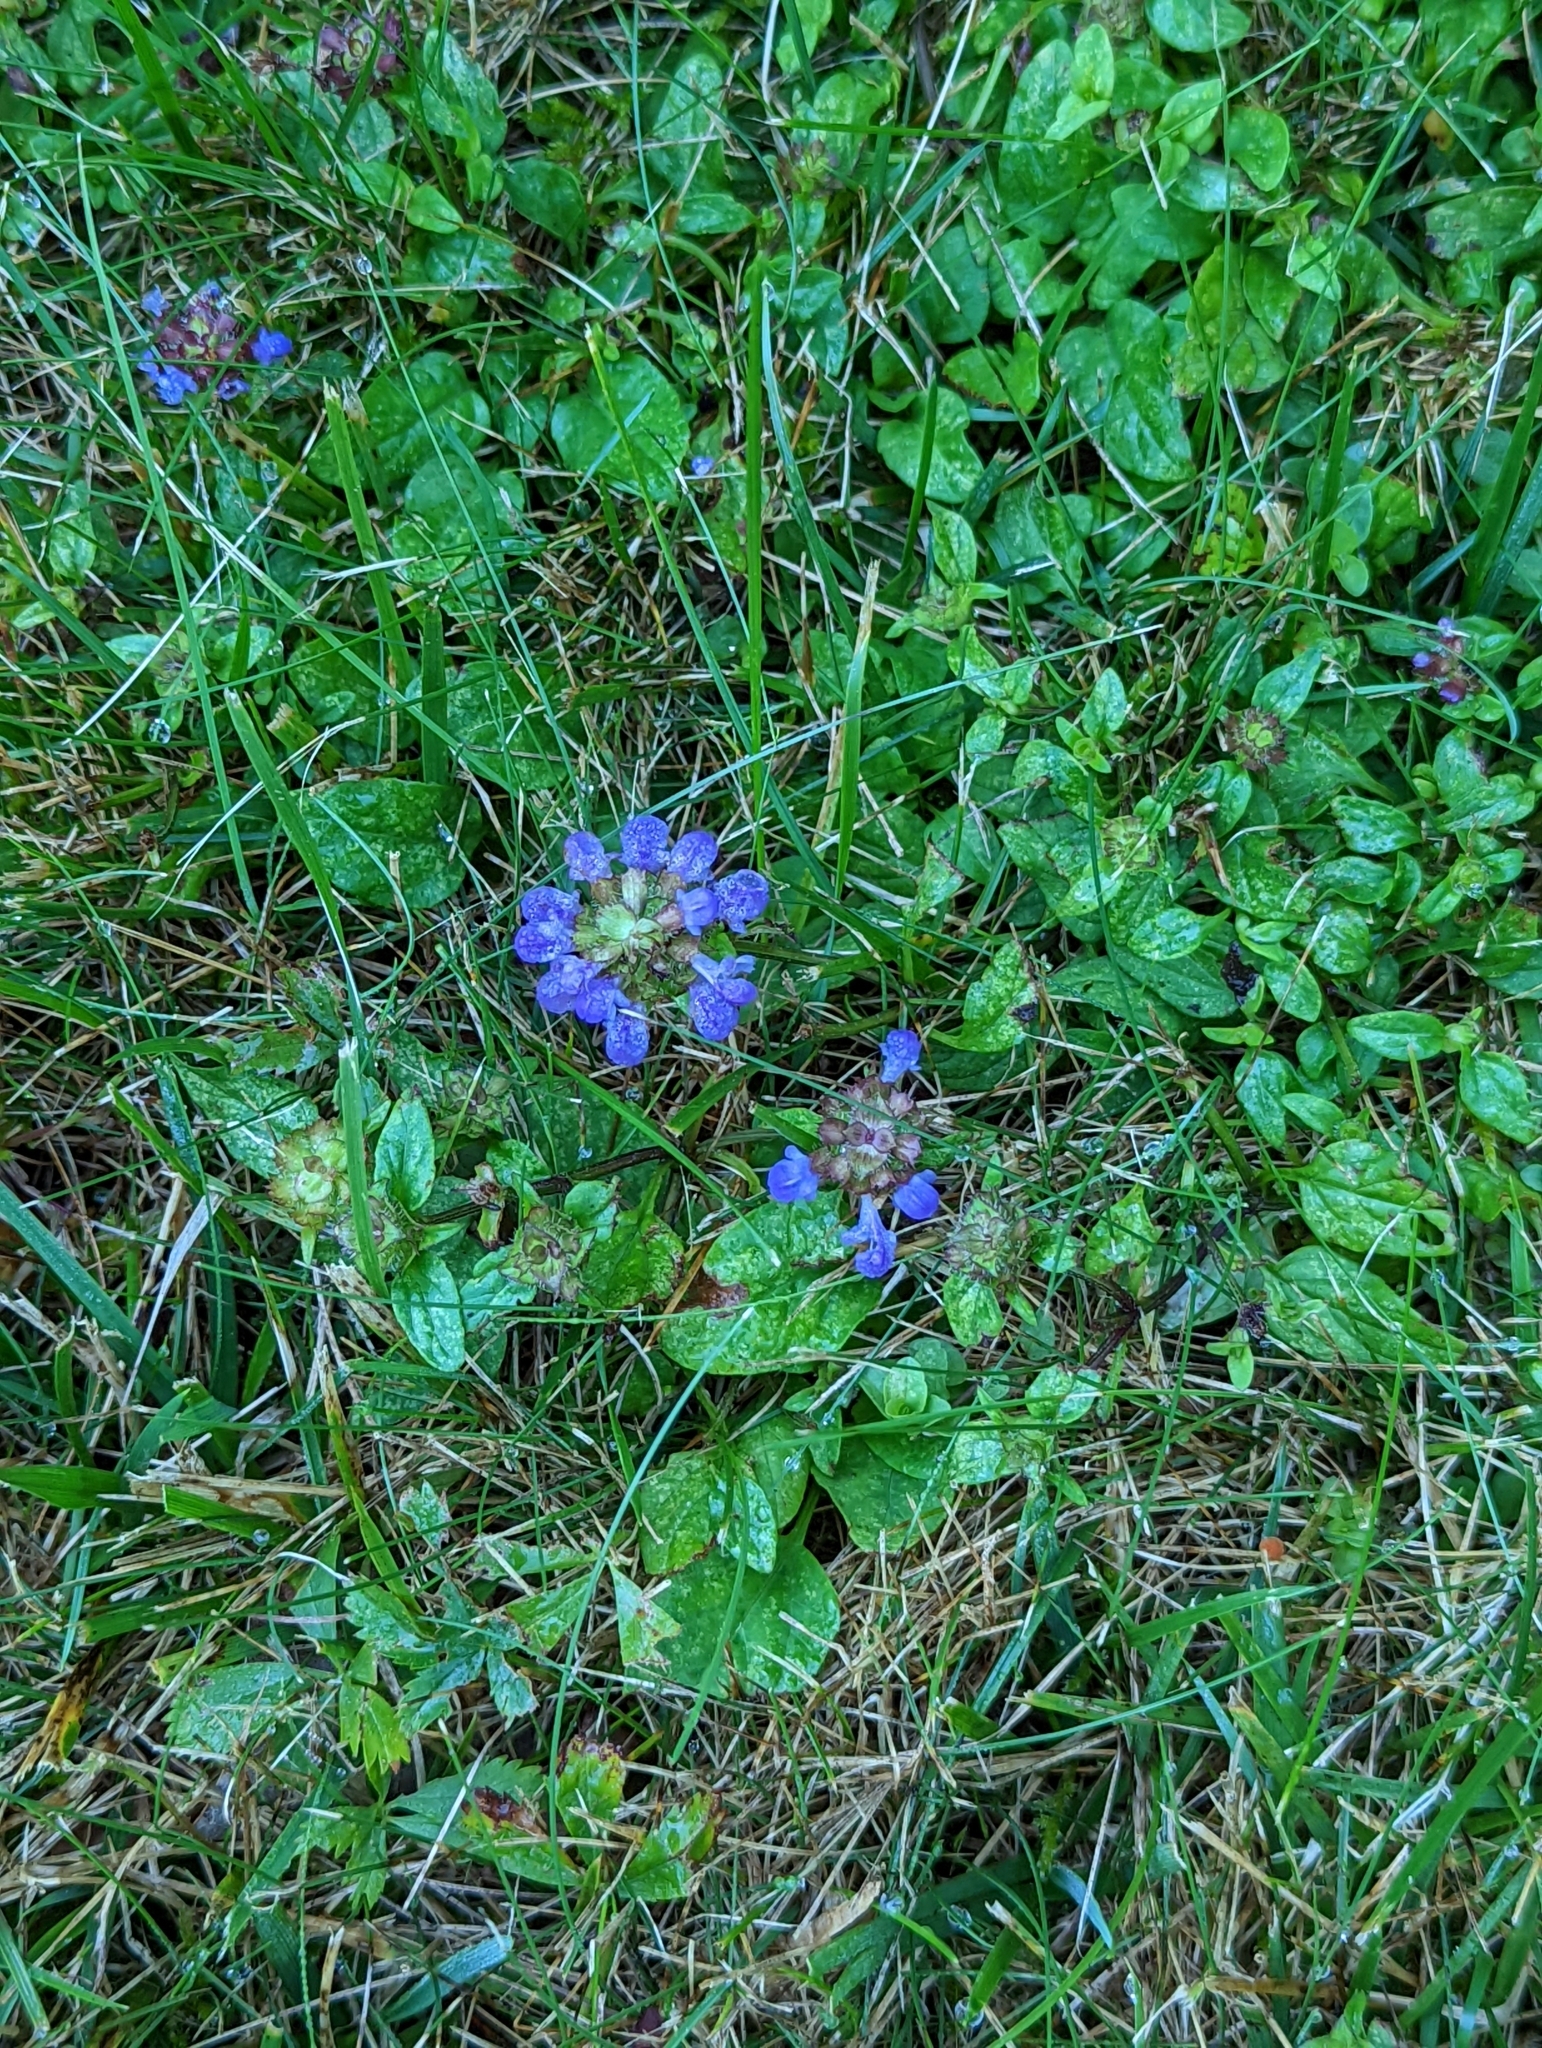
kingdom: Plantae
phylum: Tracheophyta
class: Magnoliopsida
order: Lamiales
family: Lamiaceae
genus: Prunella
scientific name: Prunella vulgaris
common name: Heal-all
